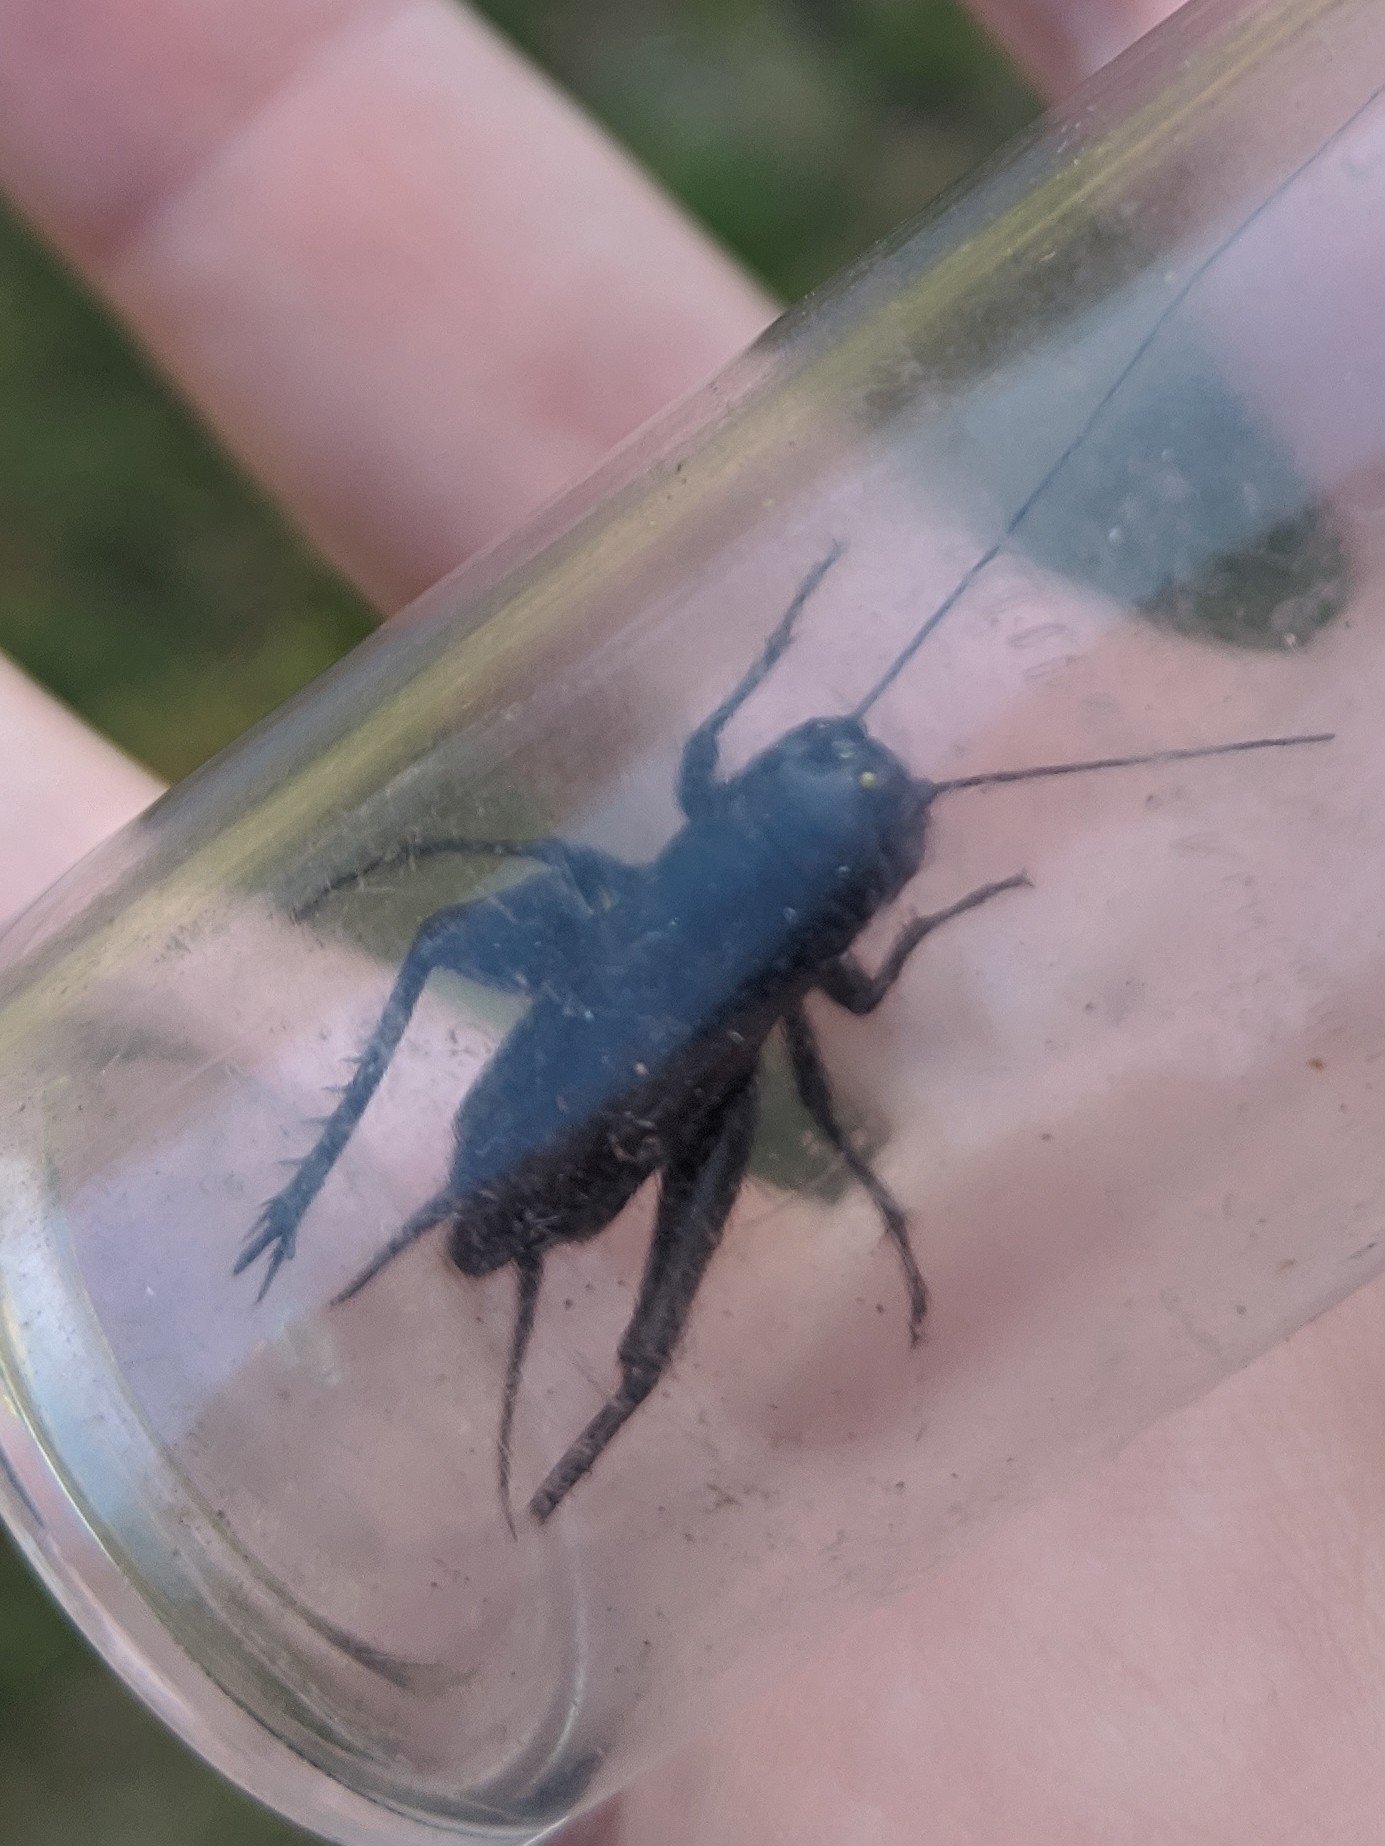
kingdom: Animalia
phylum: Arthropoda
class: Insecta
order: Orthoptera
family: Gryllidae
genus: Gryllus
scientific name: Gryllus pennsylvanicus
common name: Fall field cricket
